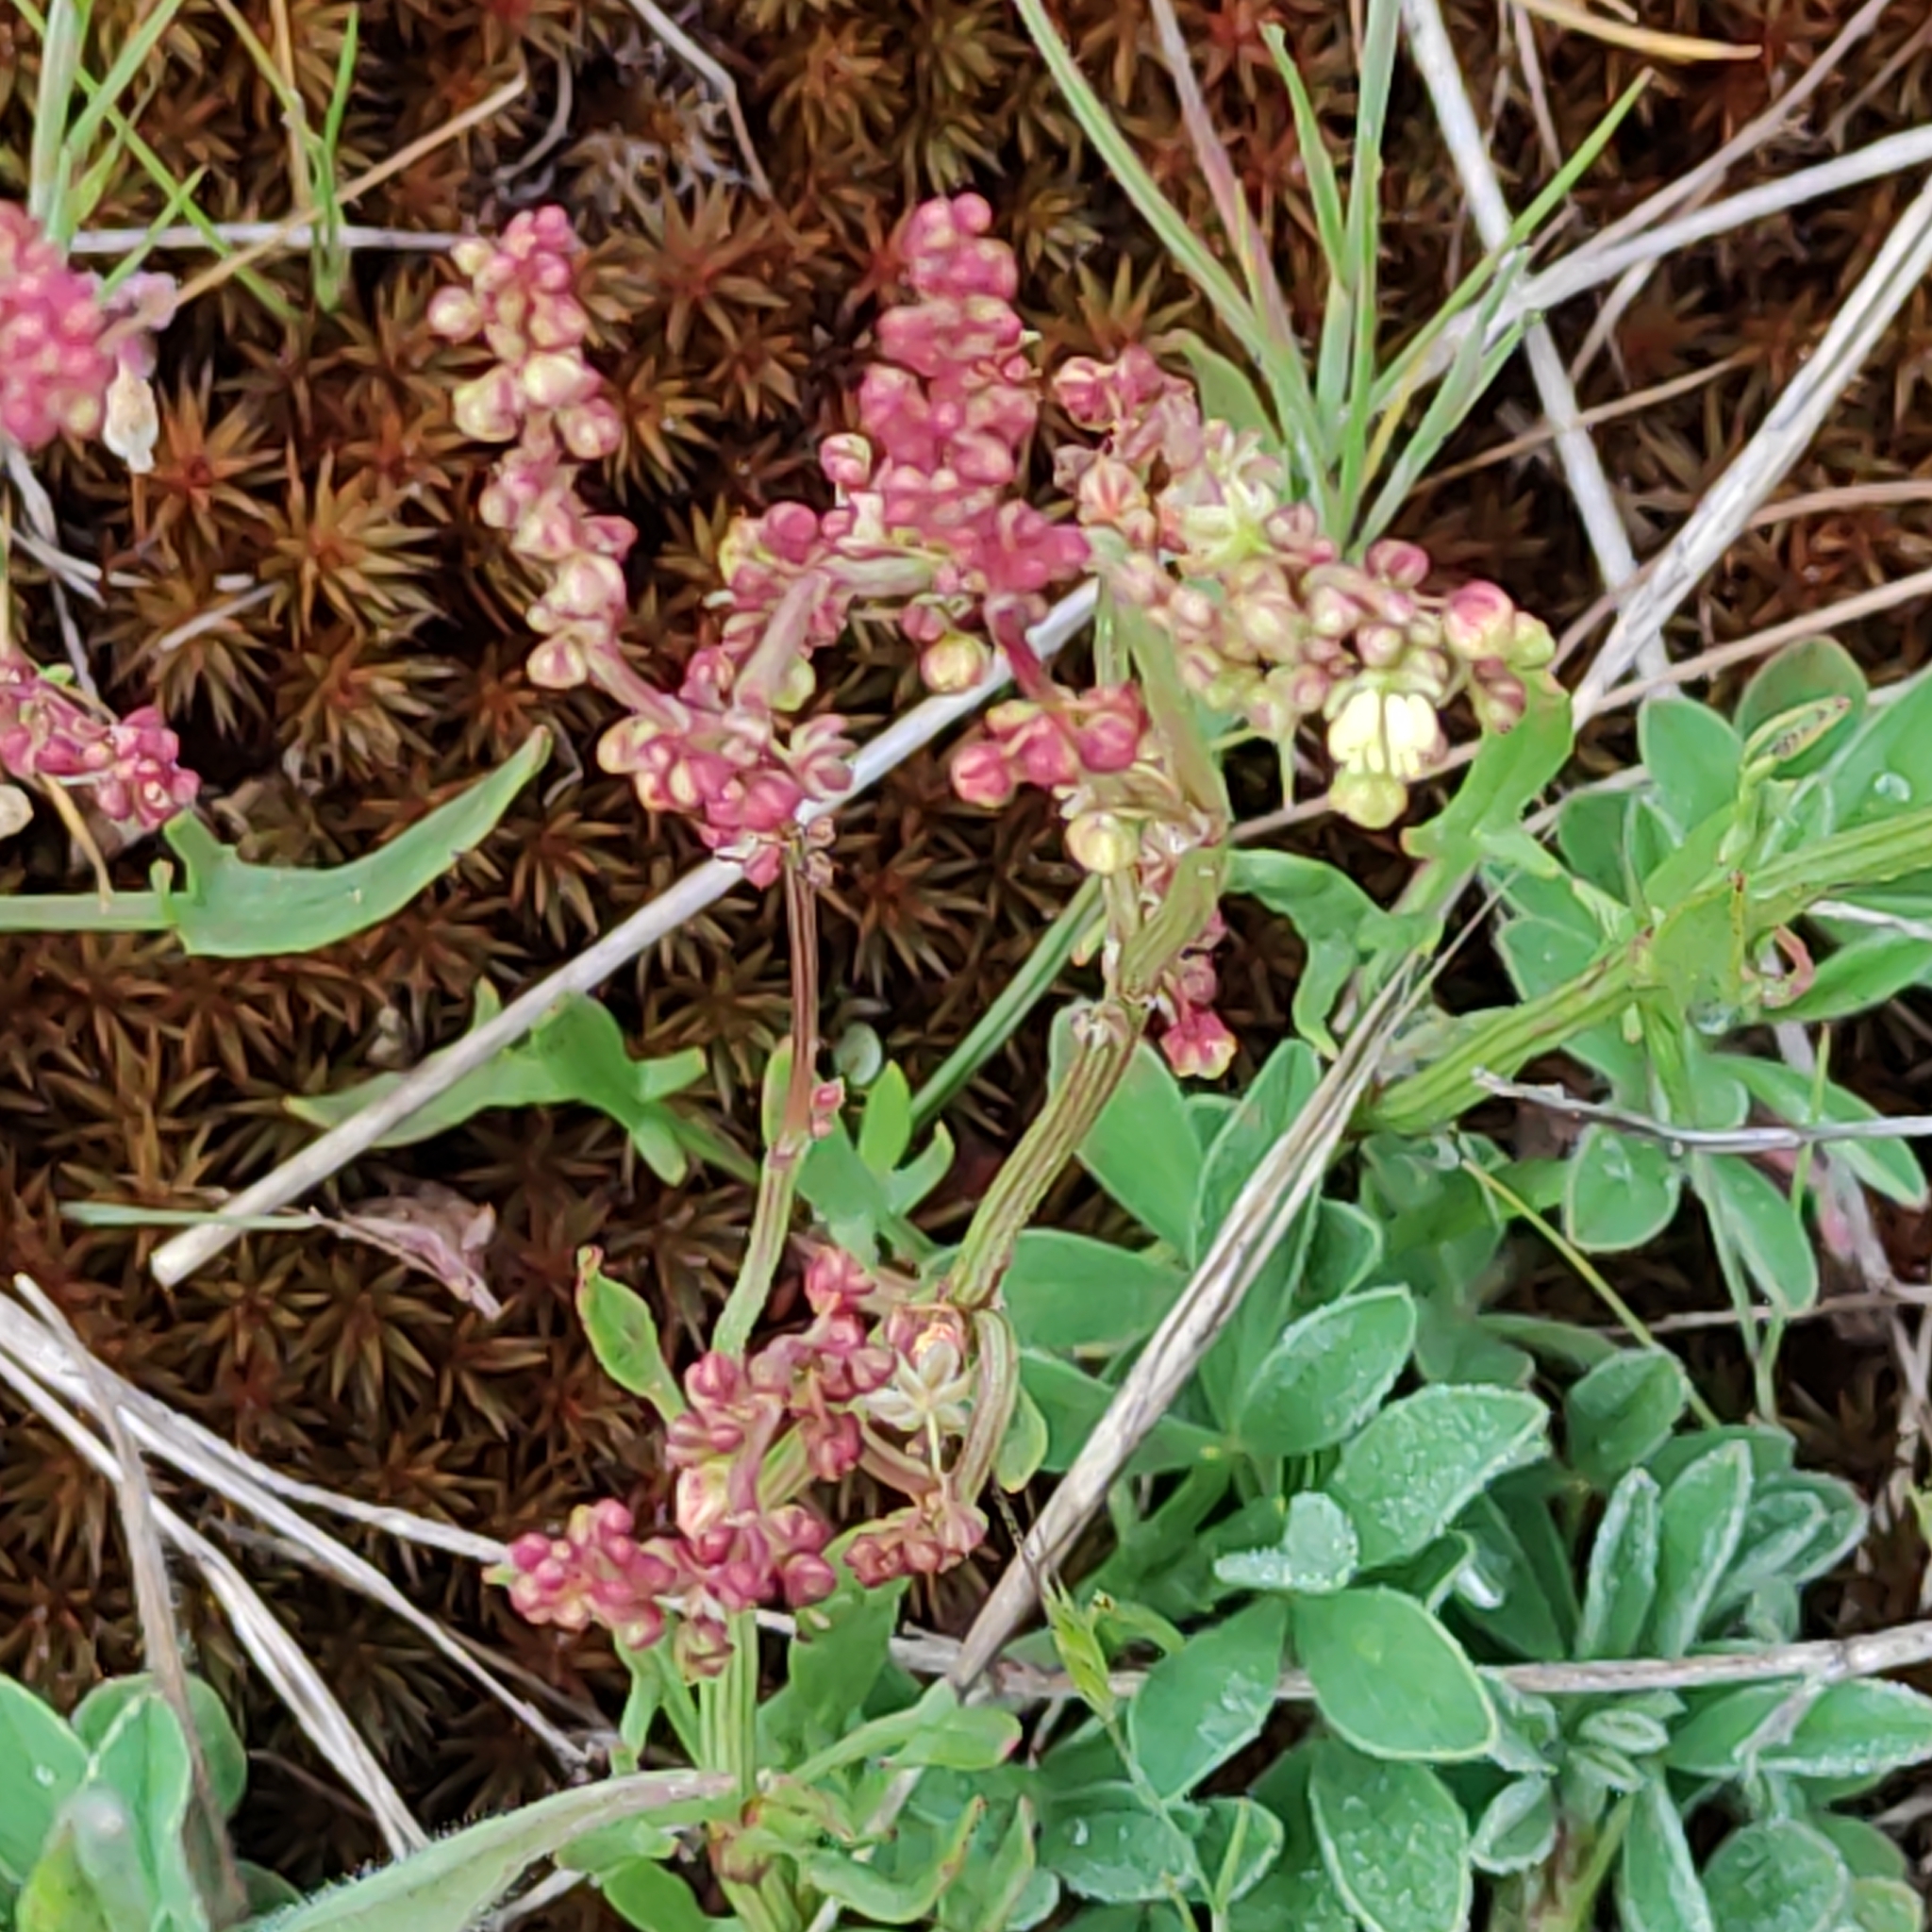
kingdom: Plantae
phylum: Tracheophyta
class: Magnoliopsida
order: Caryophyllales
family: Polygonaceae
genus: Rumex
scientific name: Rumex acetosella
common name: Common sheep sorrel
